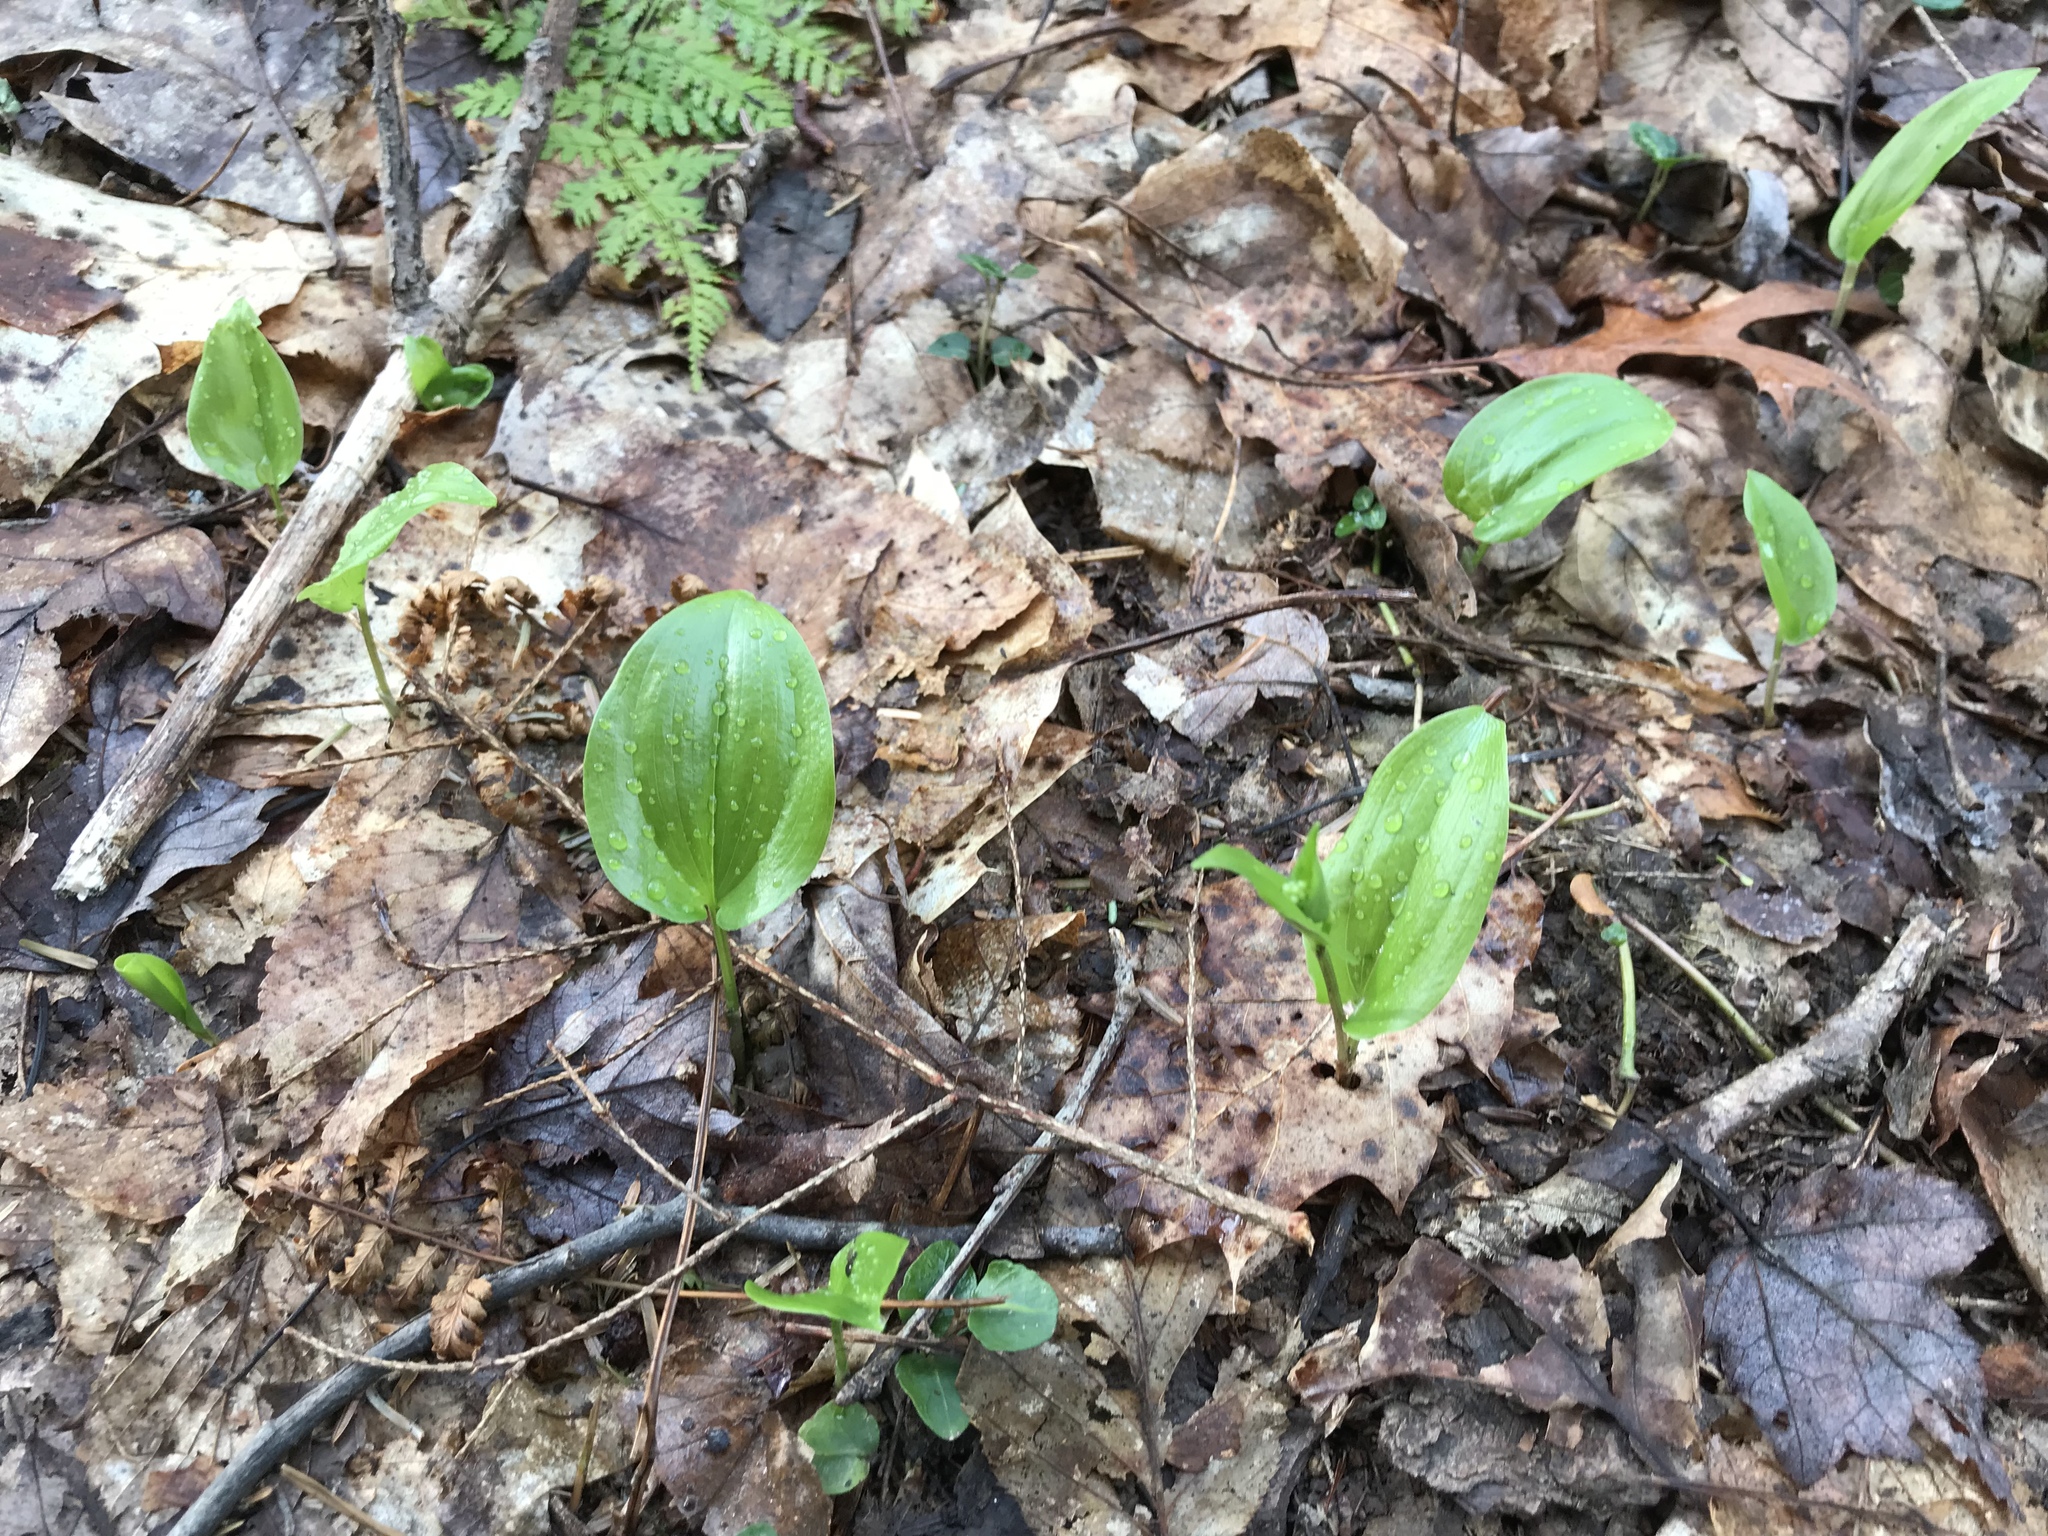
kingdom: Plantae
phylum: Tracheophyta
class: Liliopsida
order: Asparagales
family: Asparagaceae
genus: Maianthemum
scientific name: Maianthemum canadense
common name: False lily-of-the-valley
